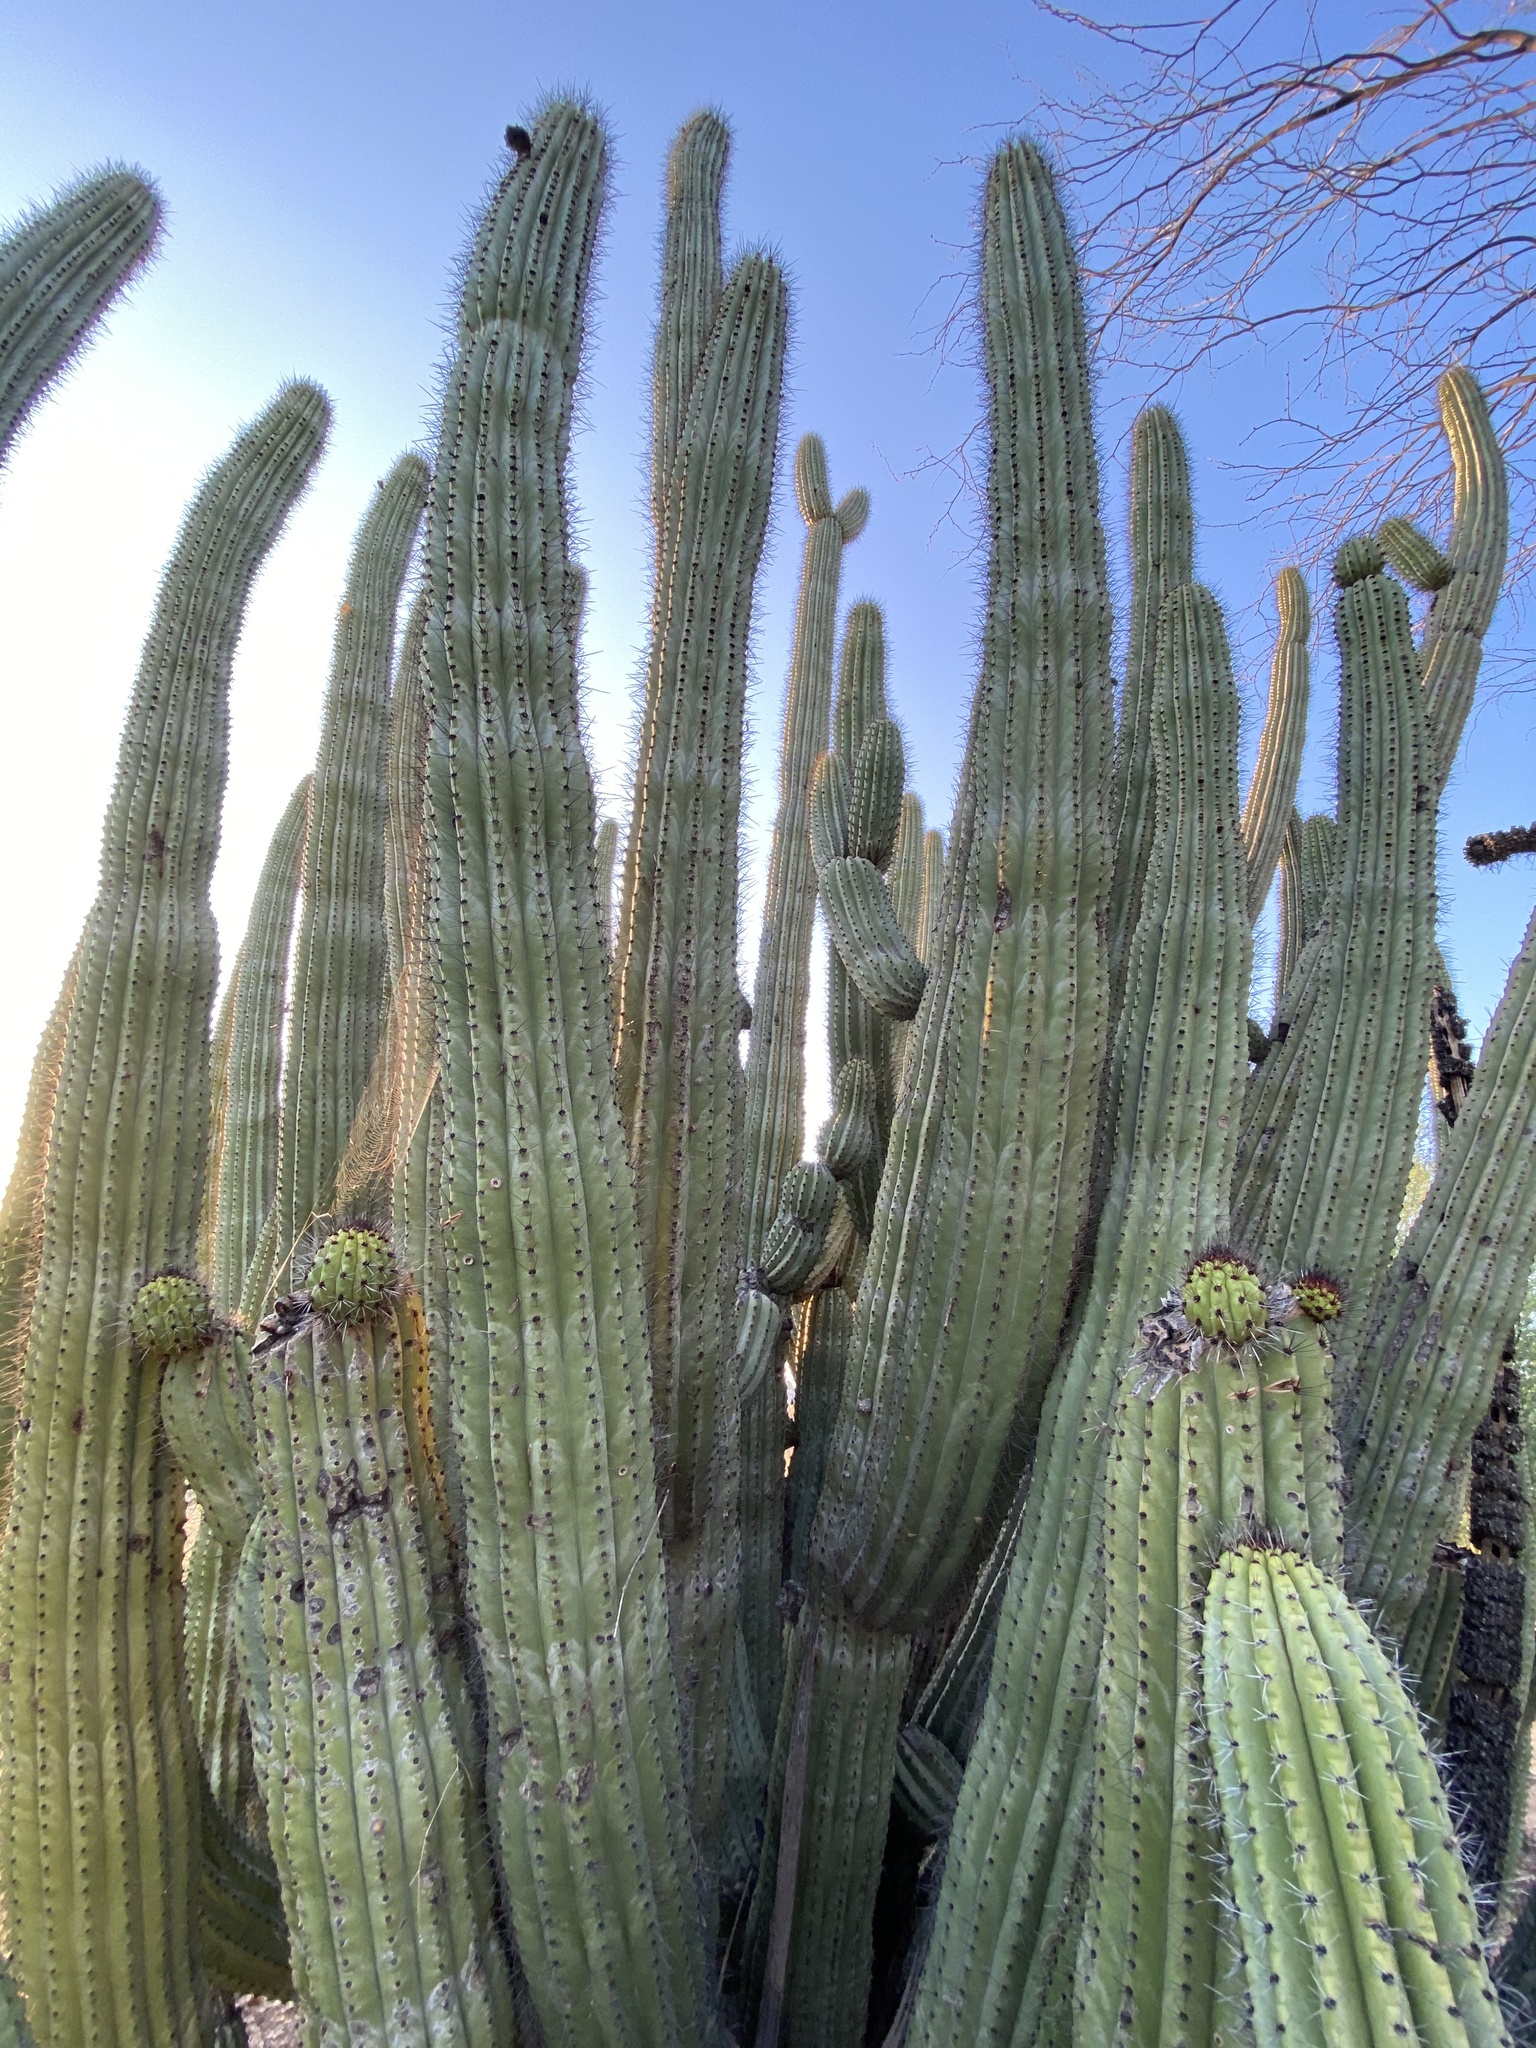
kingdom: Plantae
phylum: Tracheophyta
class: Magnoliopsida
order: Caryophyllales
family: Cactaceae
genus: Stenocereus
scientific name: Stenocereus thurberi
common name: Organ pipe cactus
